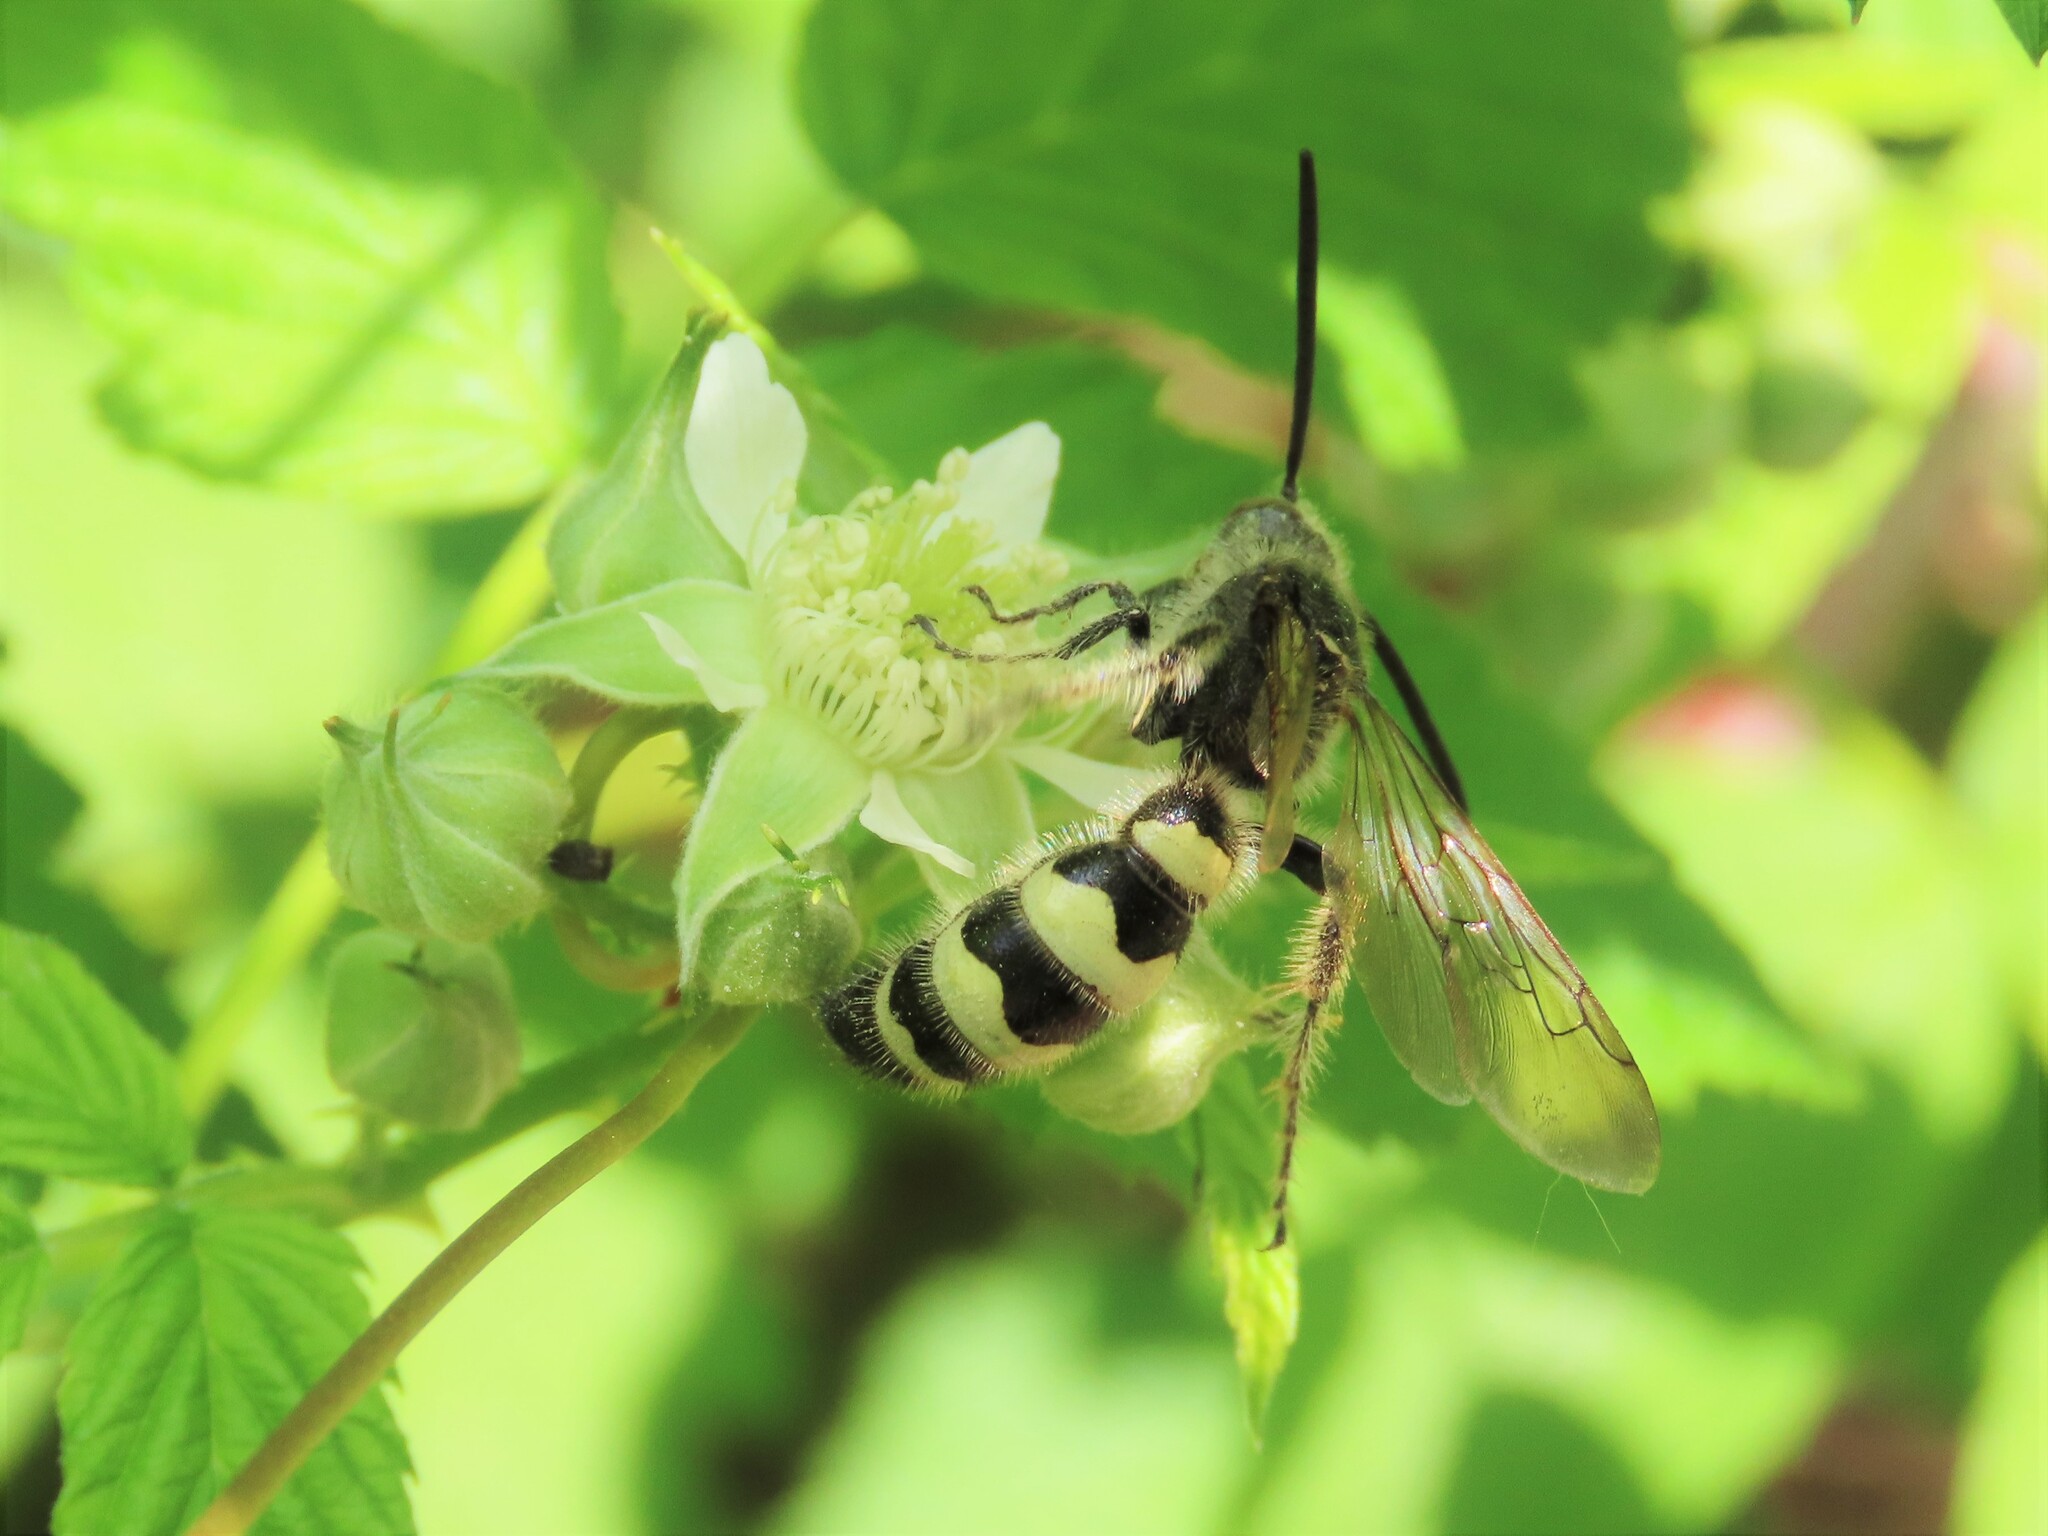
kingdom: Animalia
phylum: Arthropoda
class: Insecta
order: Hymenoptera
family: Scoliidae
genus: Dielis
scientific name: Dielis
